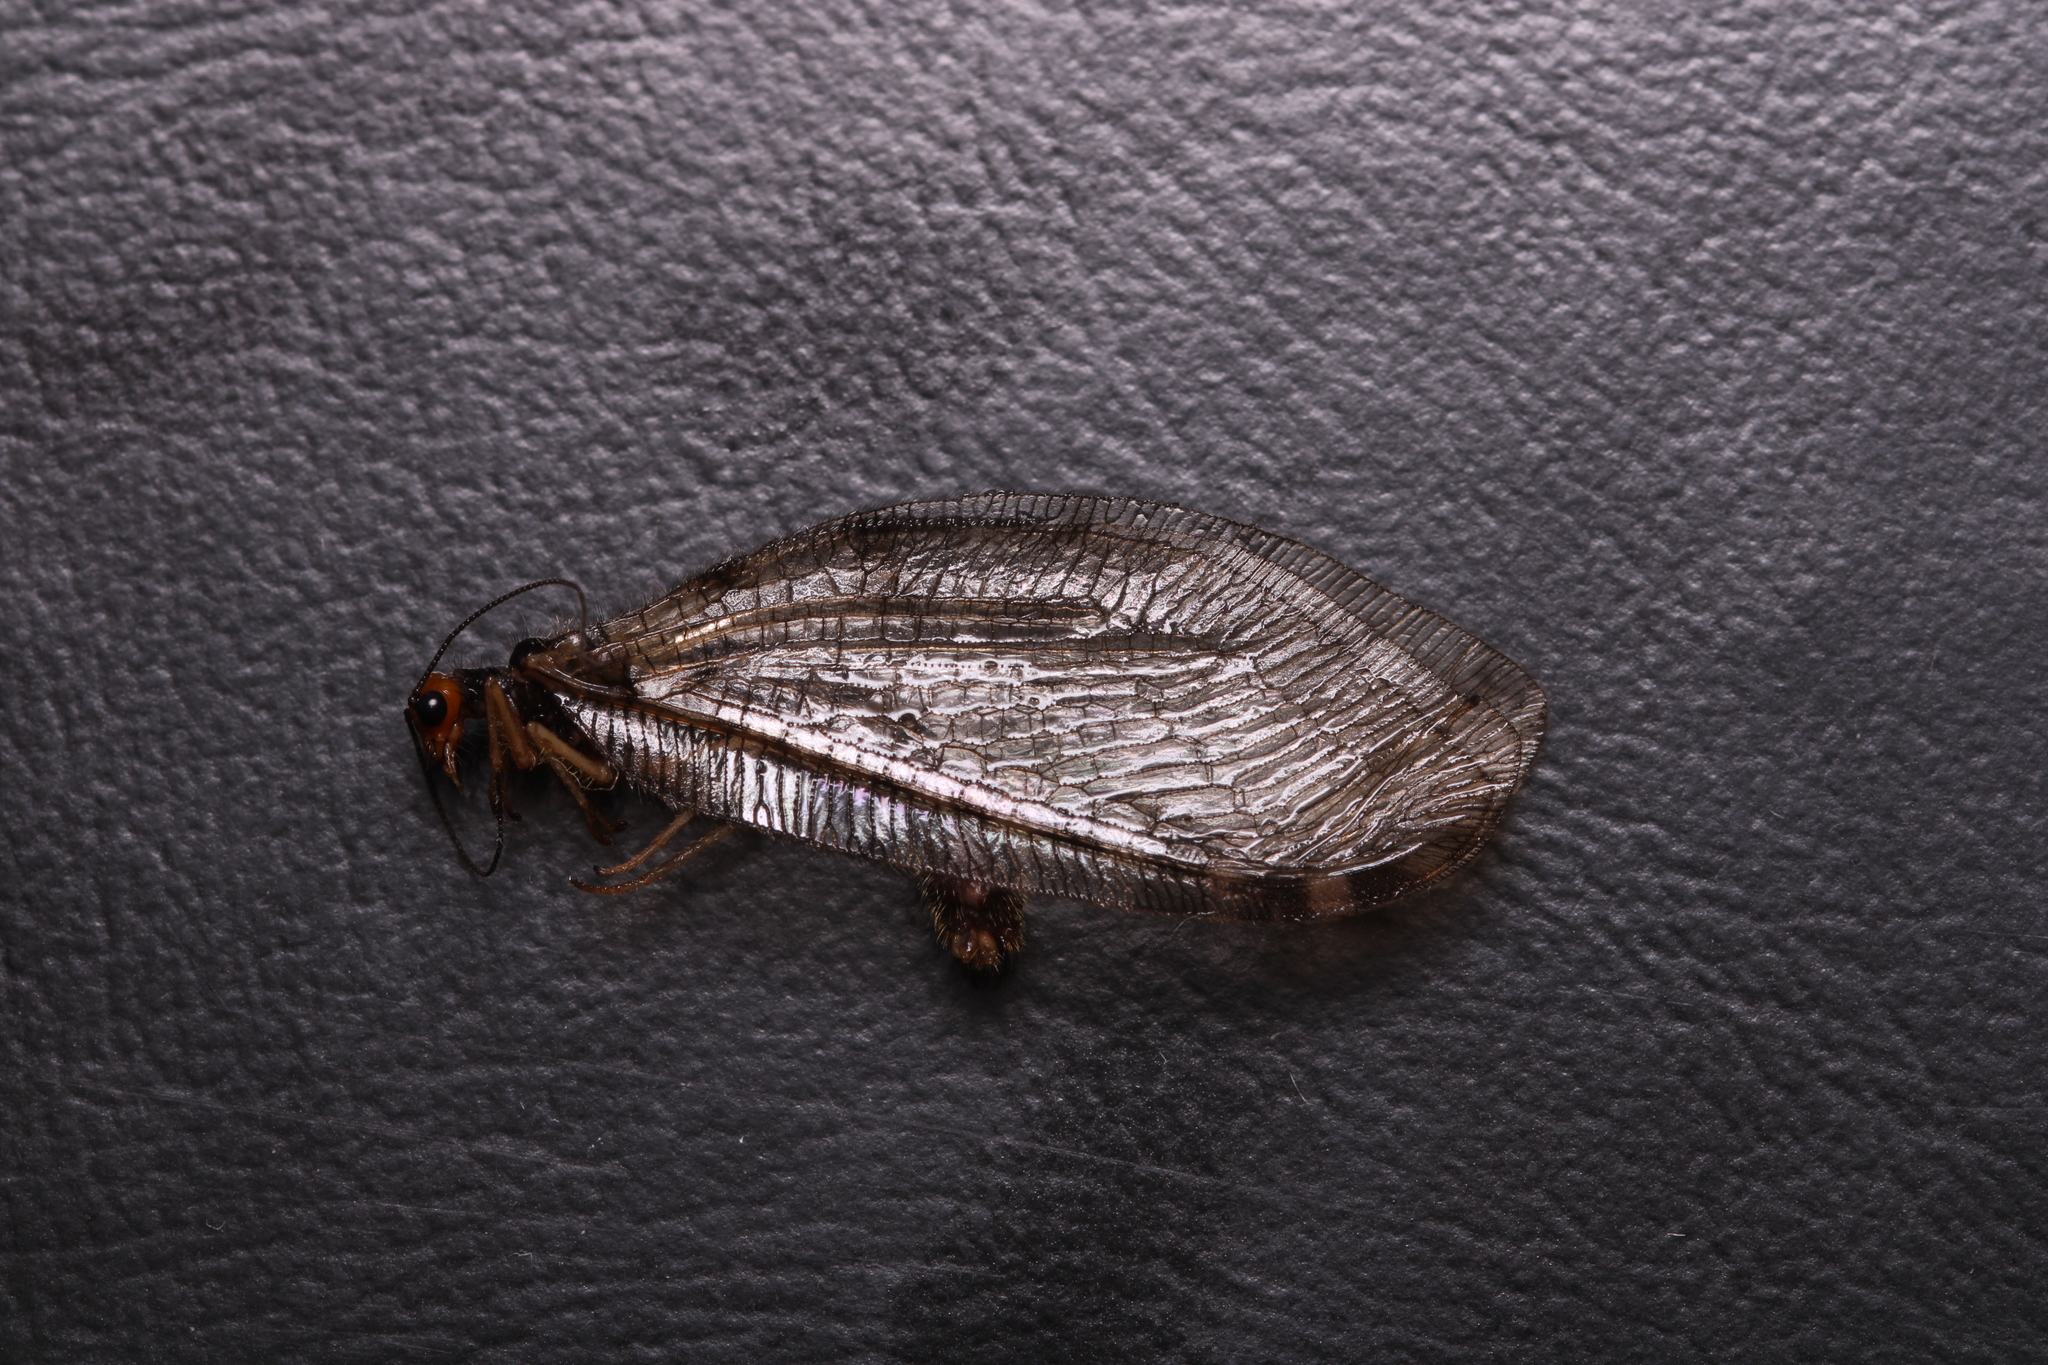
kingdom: Animalia
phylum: Arthropoda
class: Insecta
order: Neuroptera
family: Osmylidae
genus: Osmylus
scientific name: Osmylus fulvicephalus
